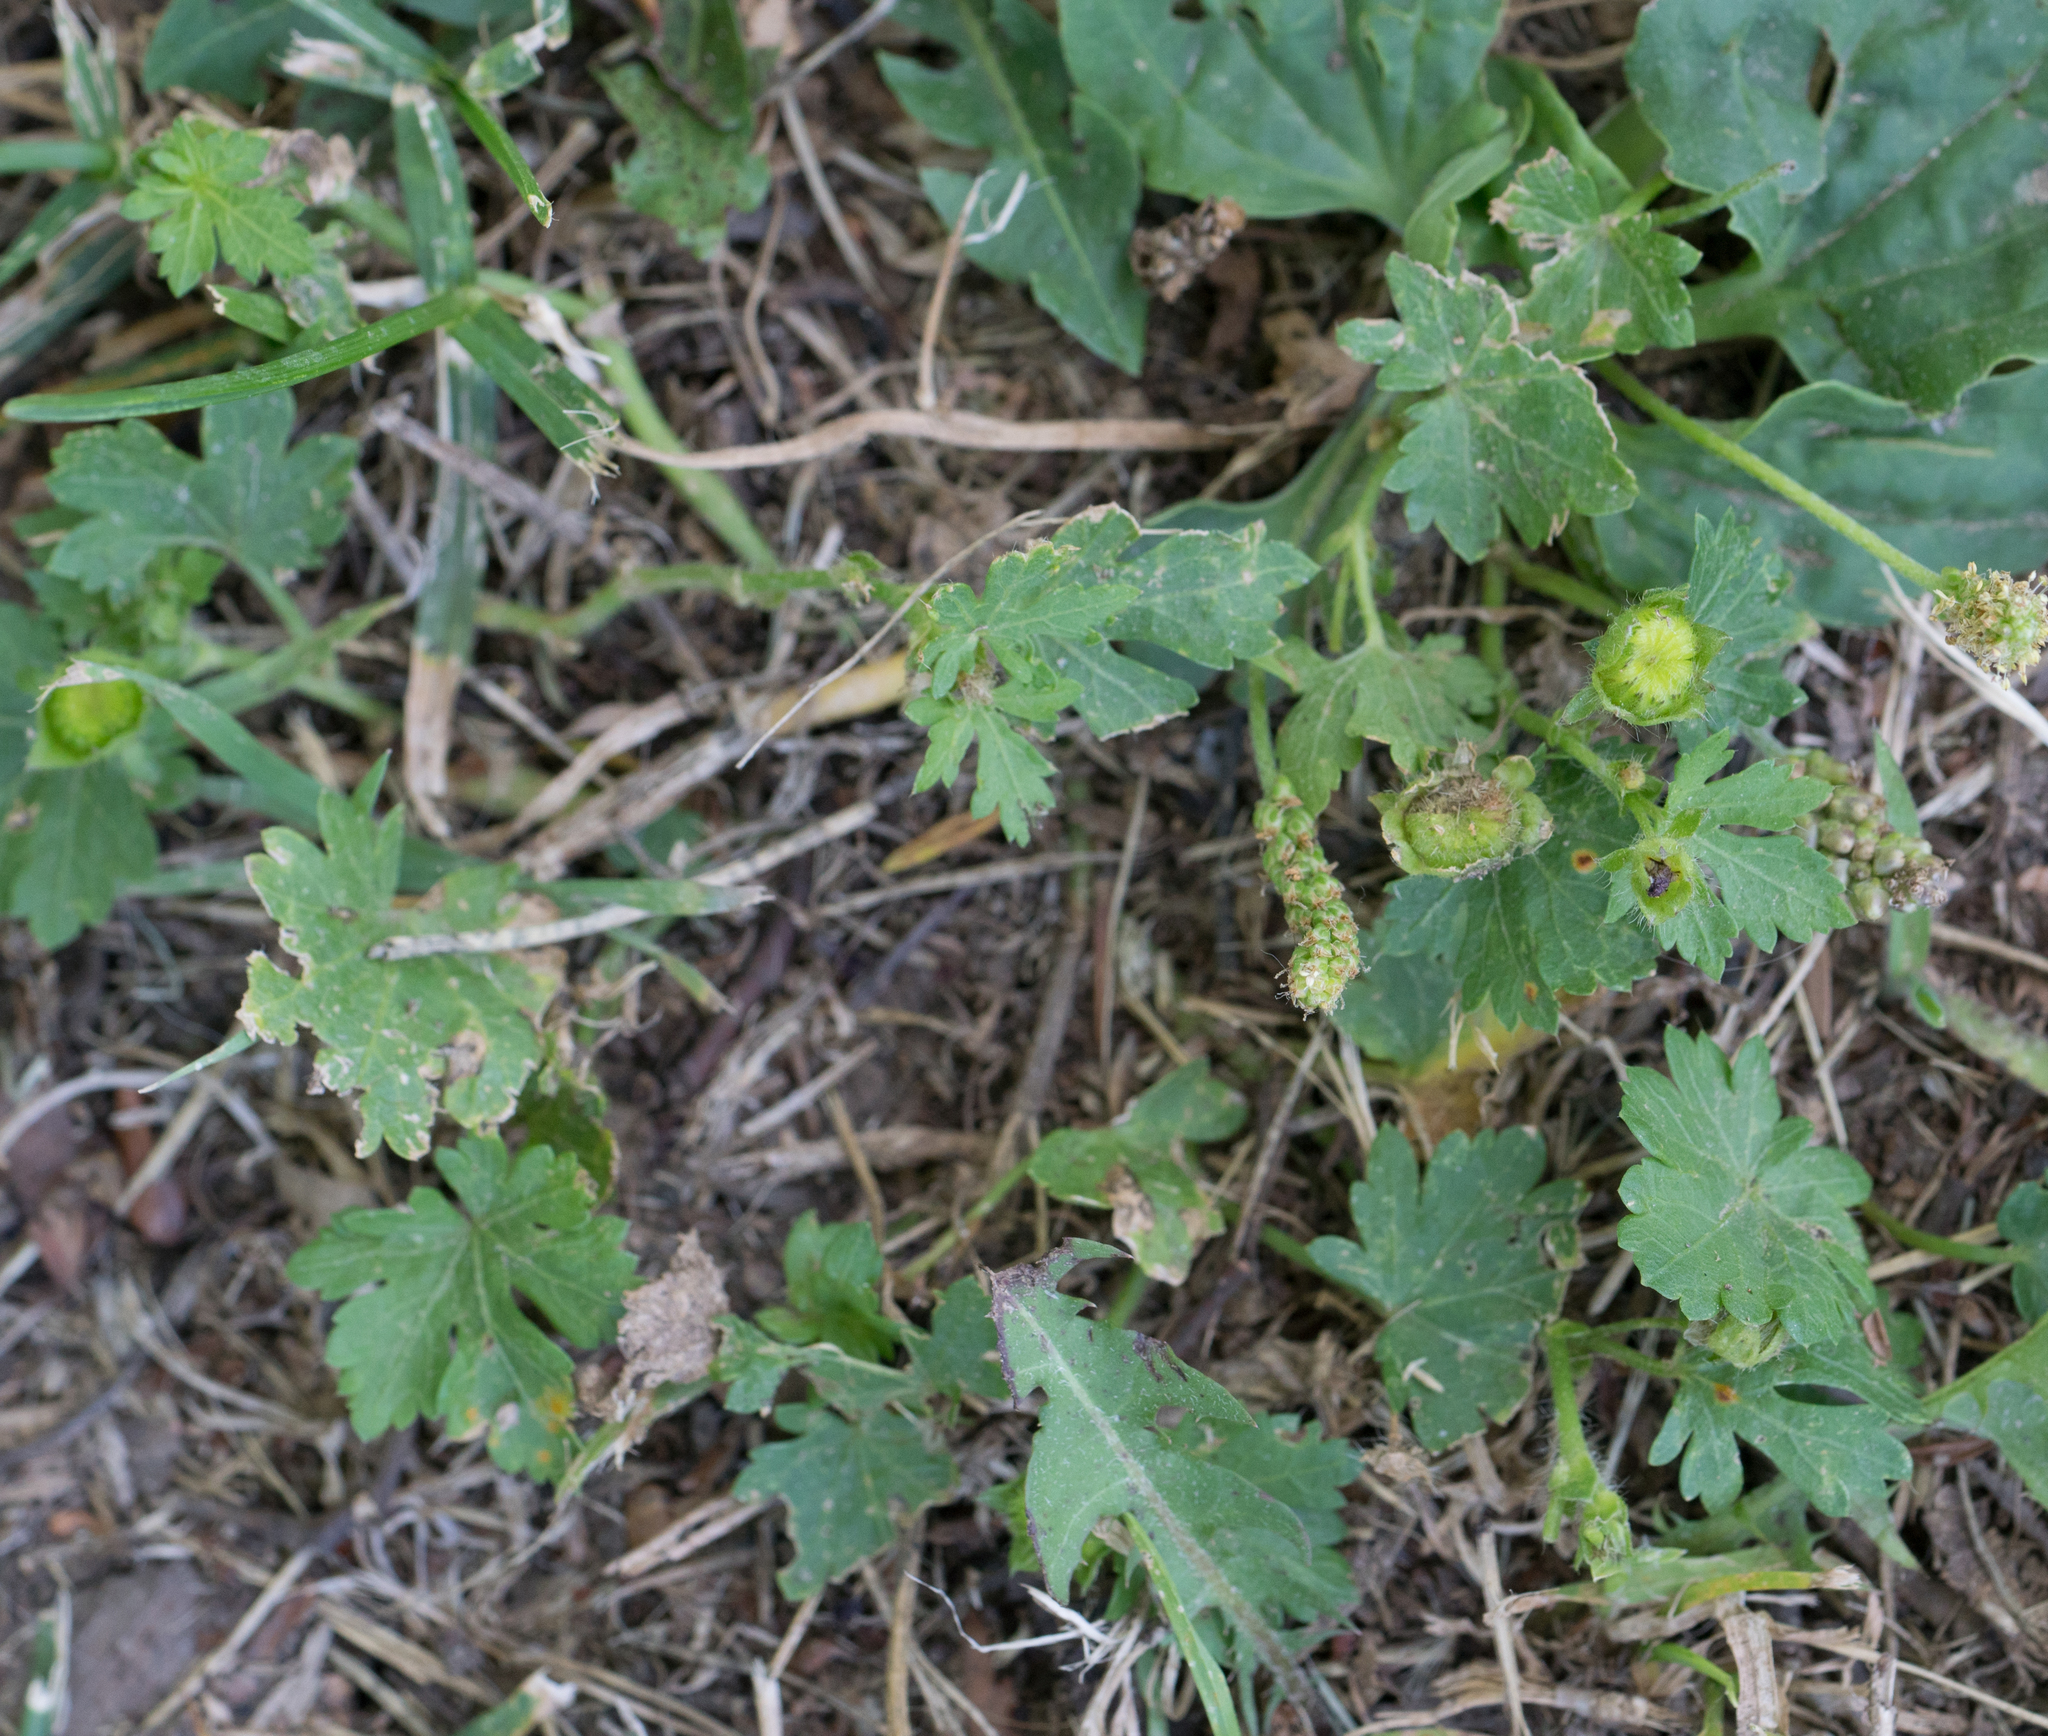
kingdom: Plantae
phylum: Tracheophyta
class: Magnoliopsida
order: Malvales
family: Malvaceae
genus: Modiola
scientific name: Modiola caroliniana
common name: Carolina bristlemallow
